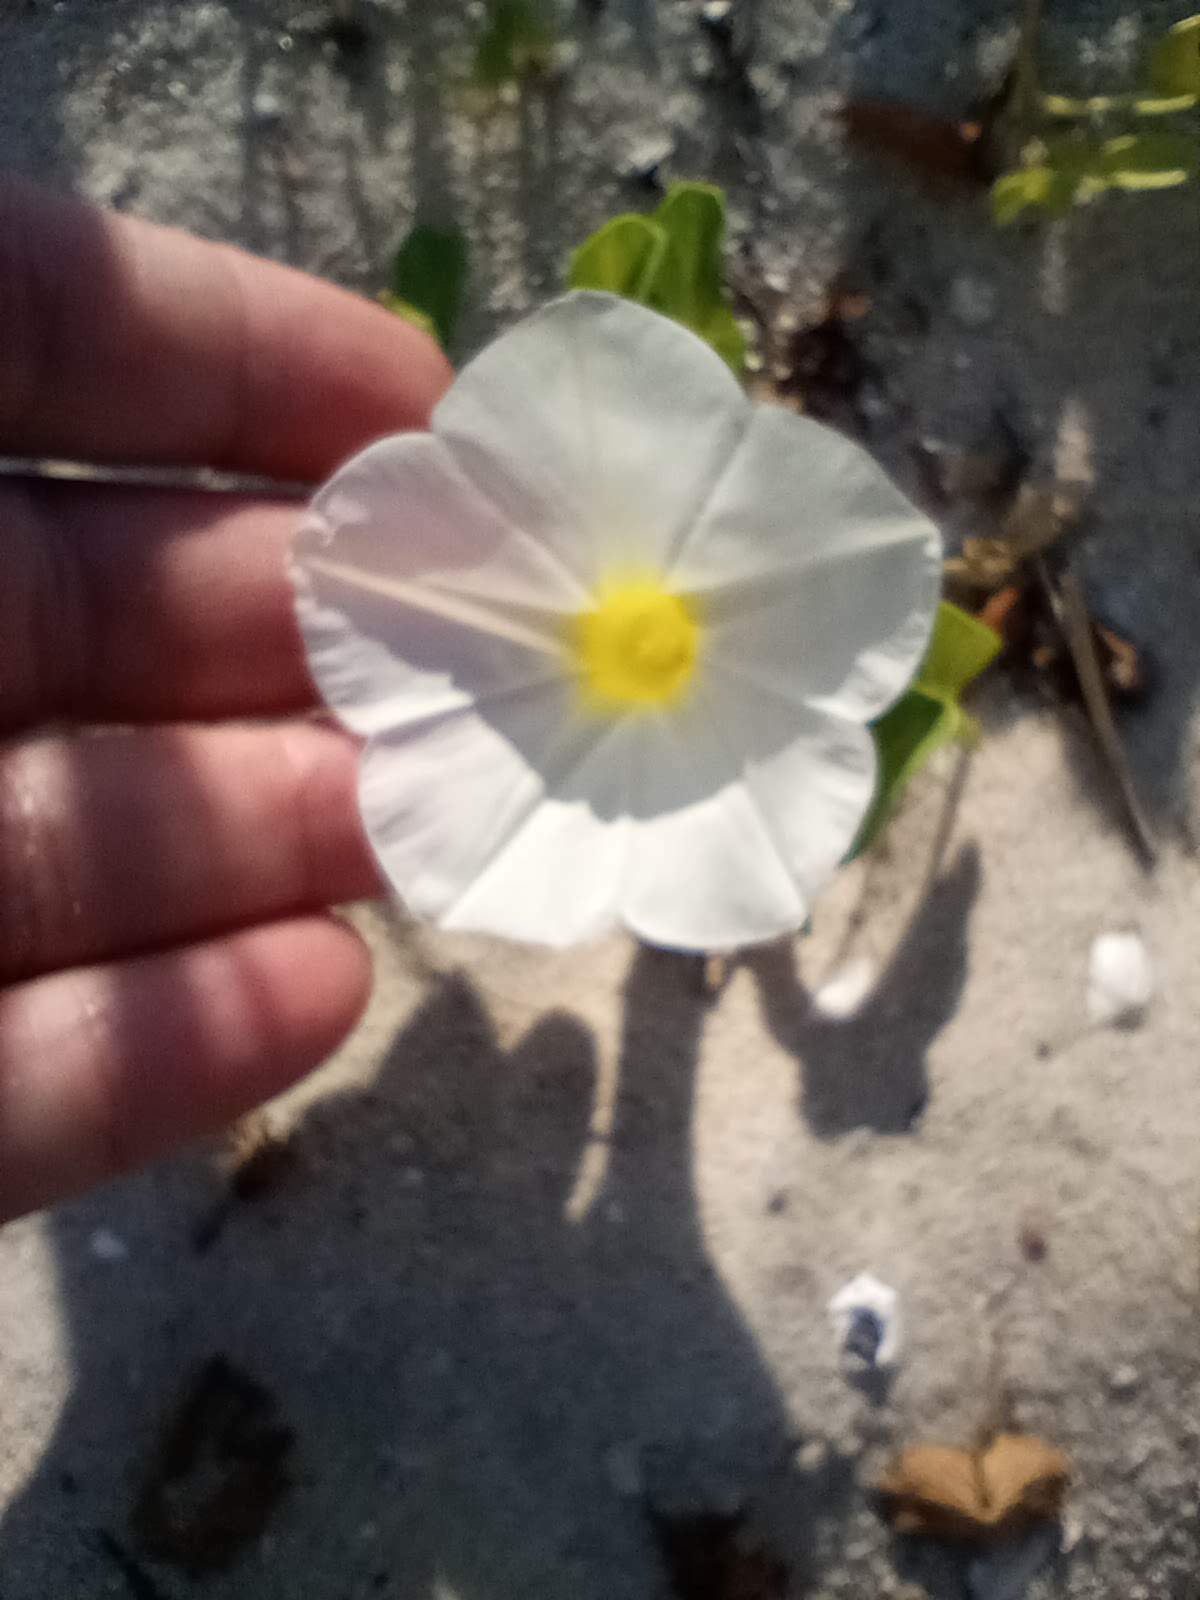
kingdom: Plantae
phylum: Tracheophyta
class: Magnoliopsida
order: Solanales
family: Convolvulaceae
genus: Ipomoea
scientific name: Ipomoea imperati
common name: Fiddle-leaf morning-glory
